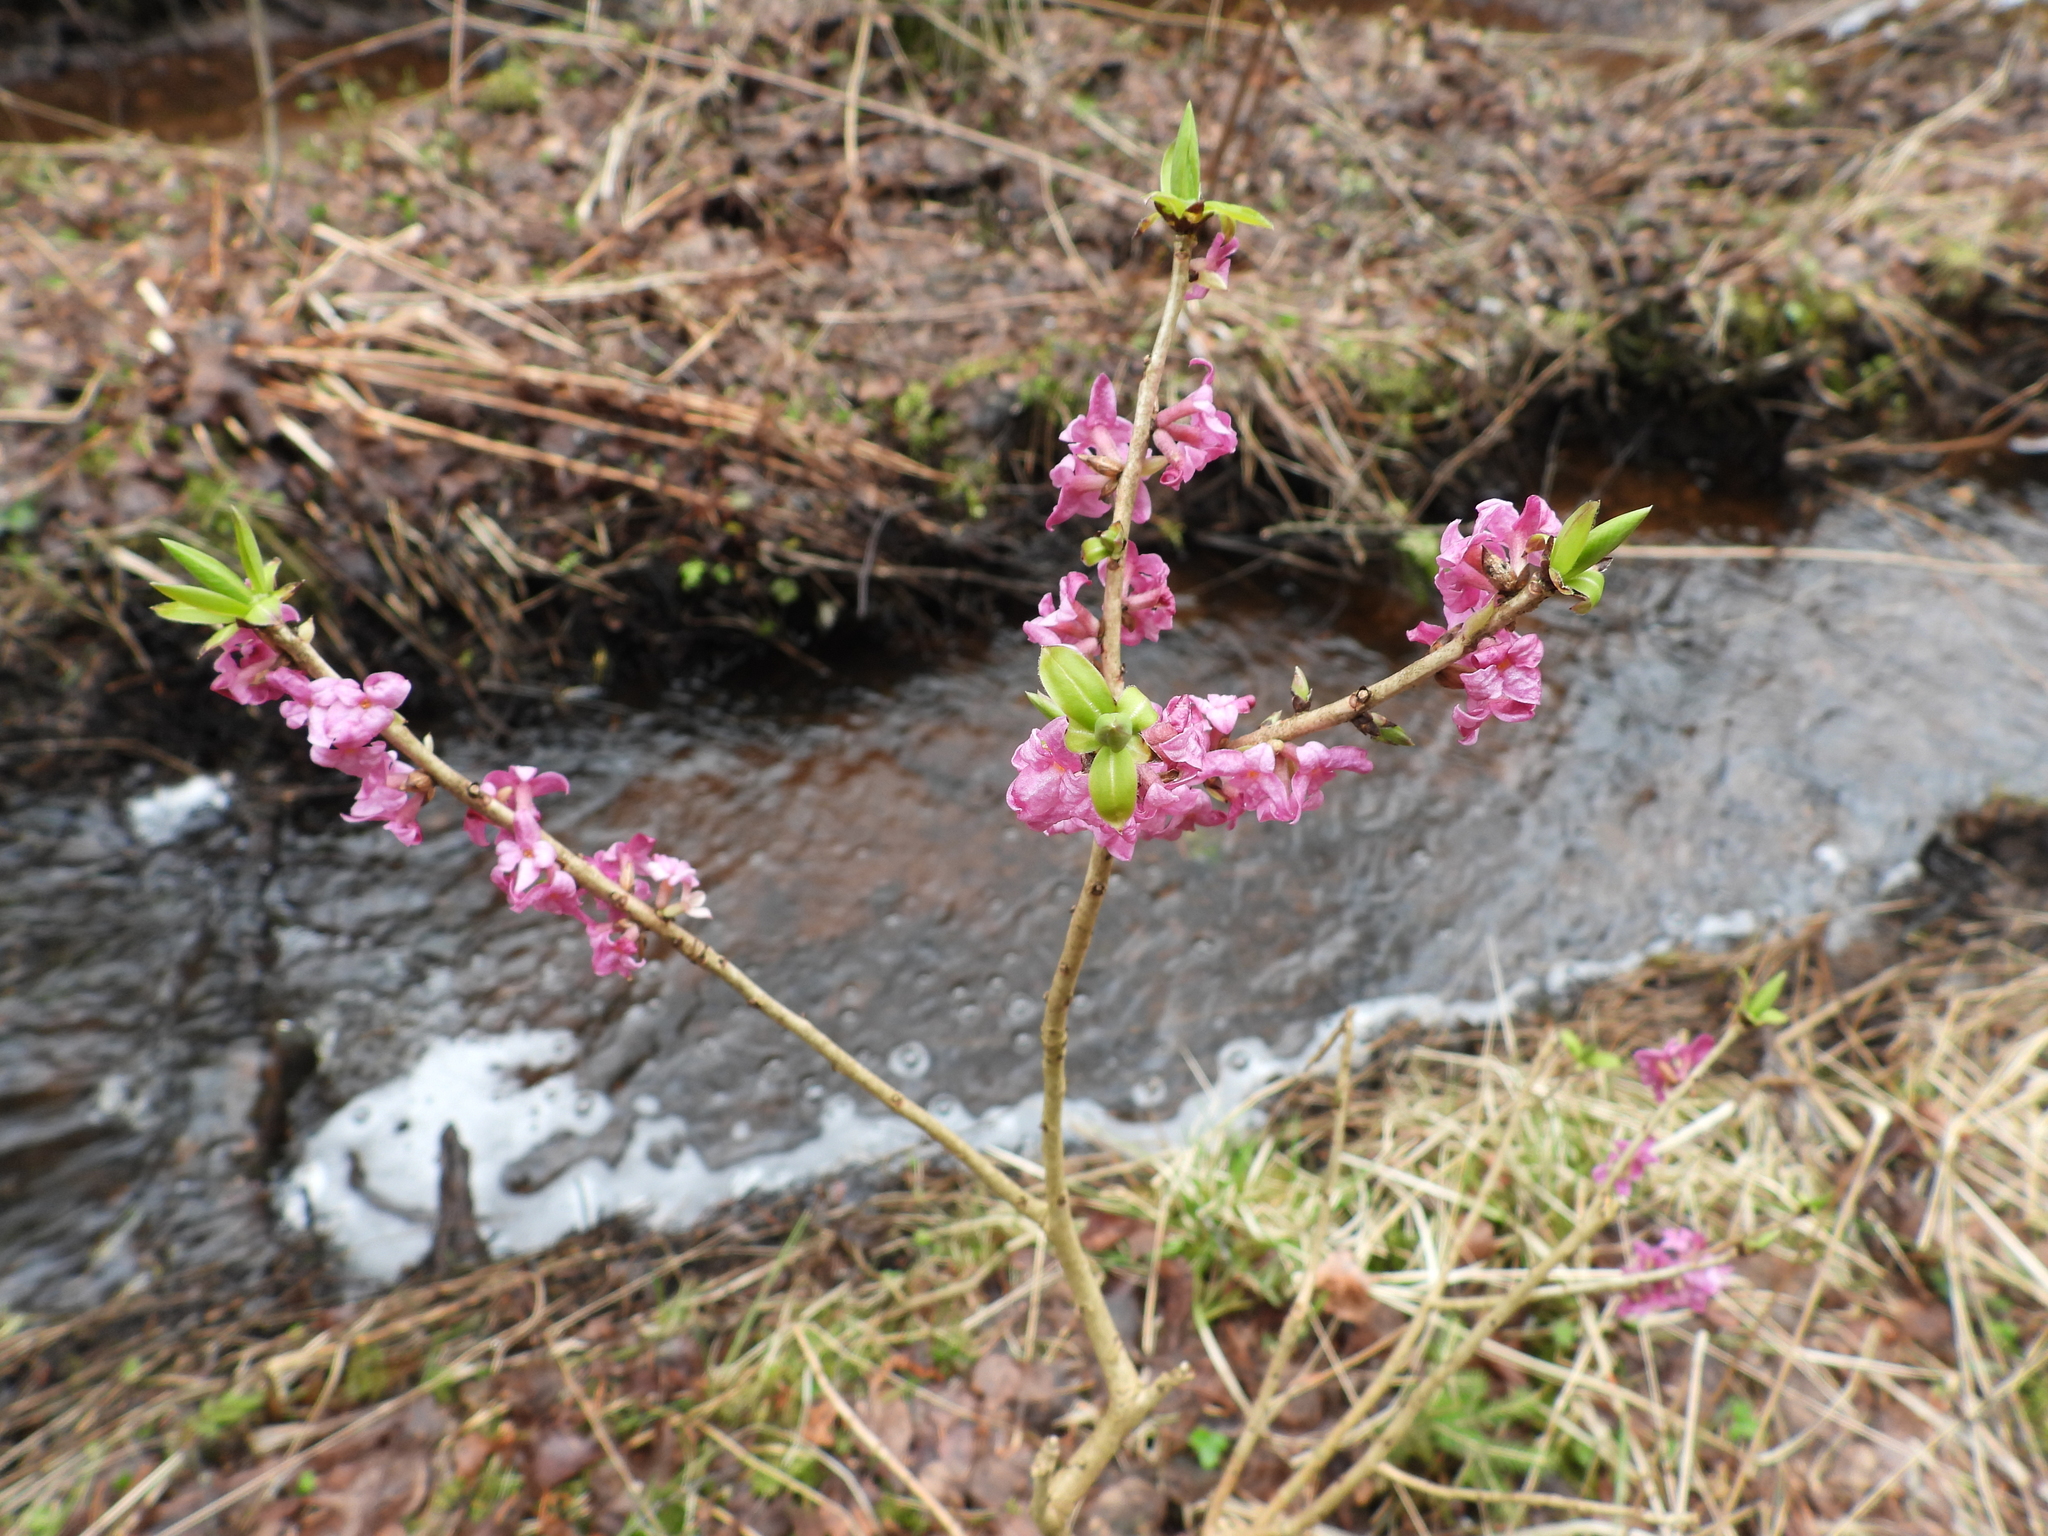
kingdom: Plantae
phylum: Tracheophyta
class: Magnoliopsida
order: Malvales
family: Thymelaeaceae
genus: Daphne
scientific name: Daphne mezereum
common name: Mezereon
